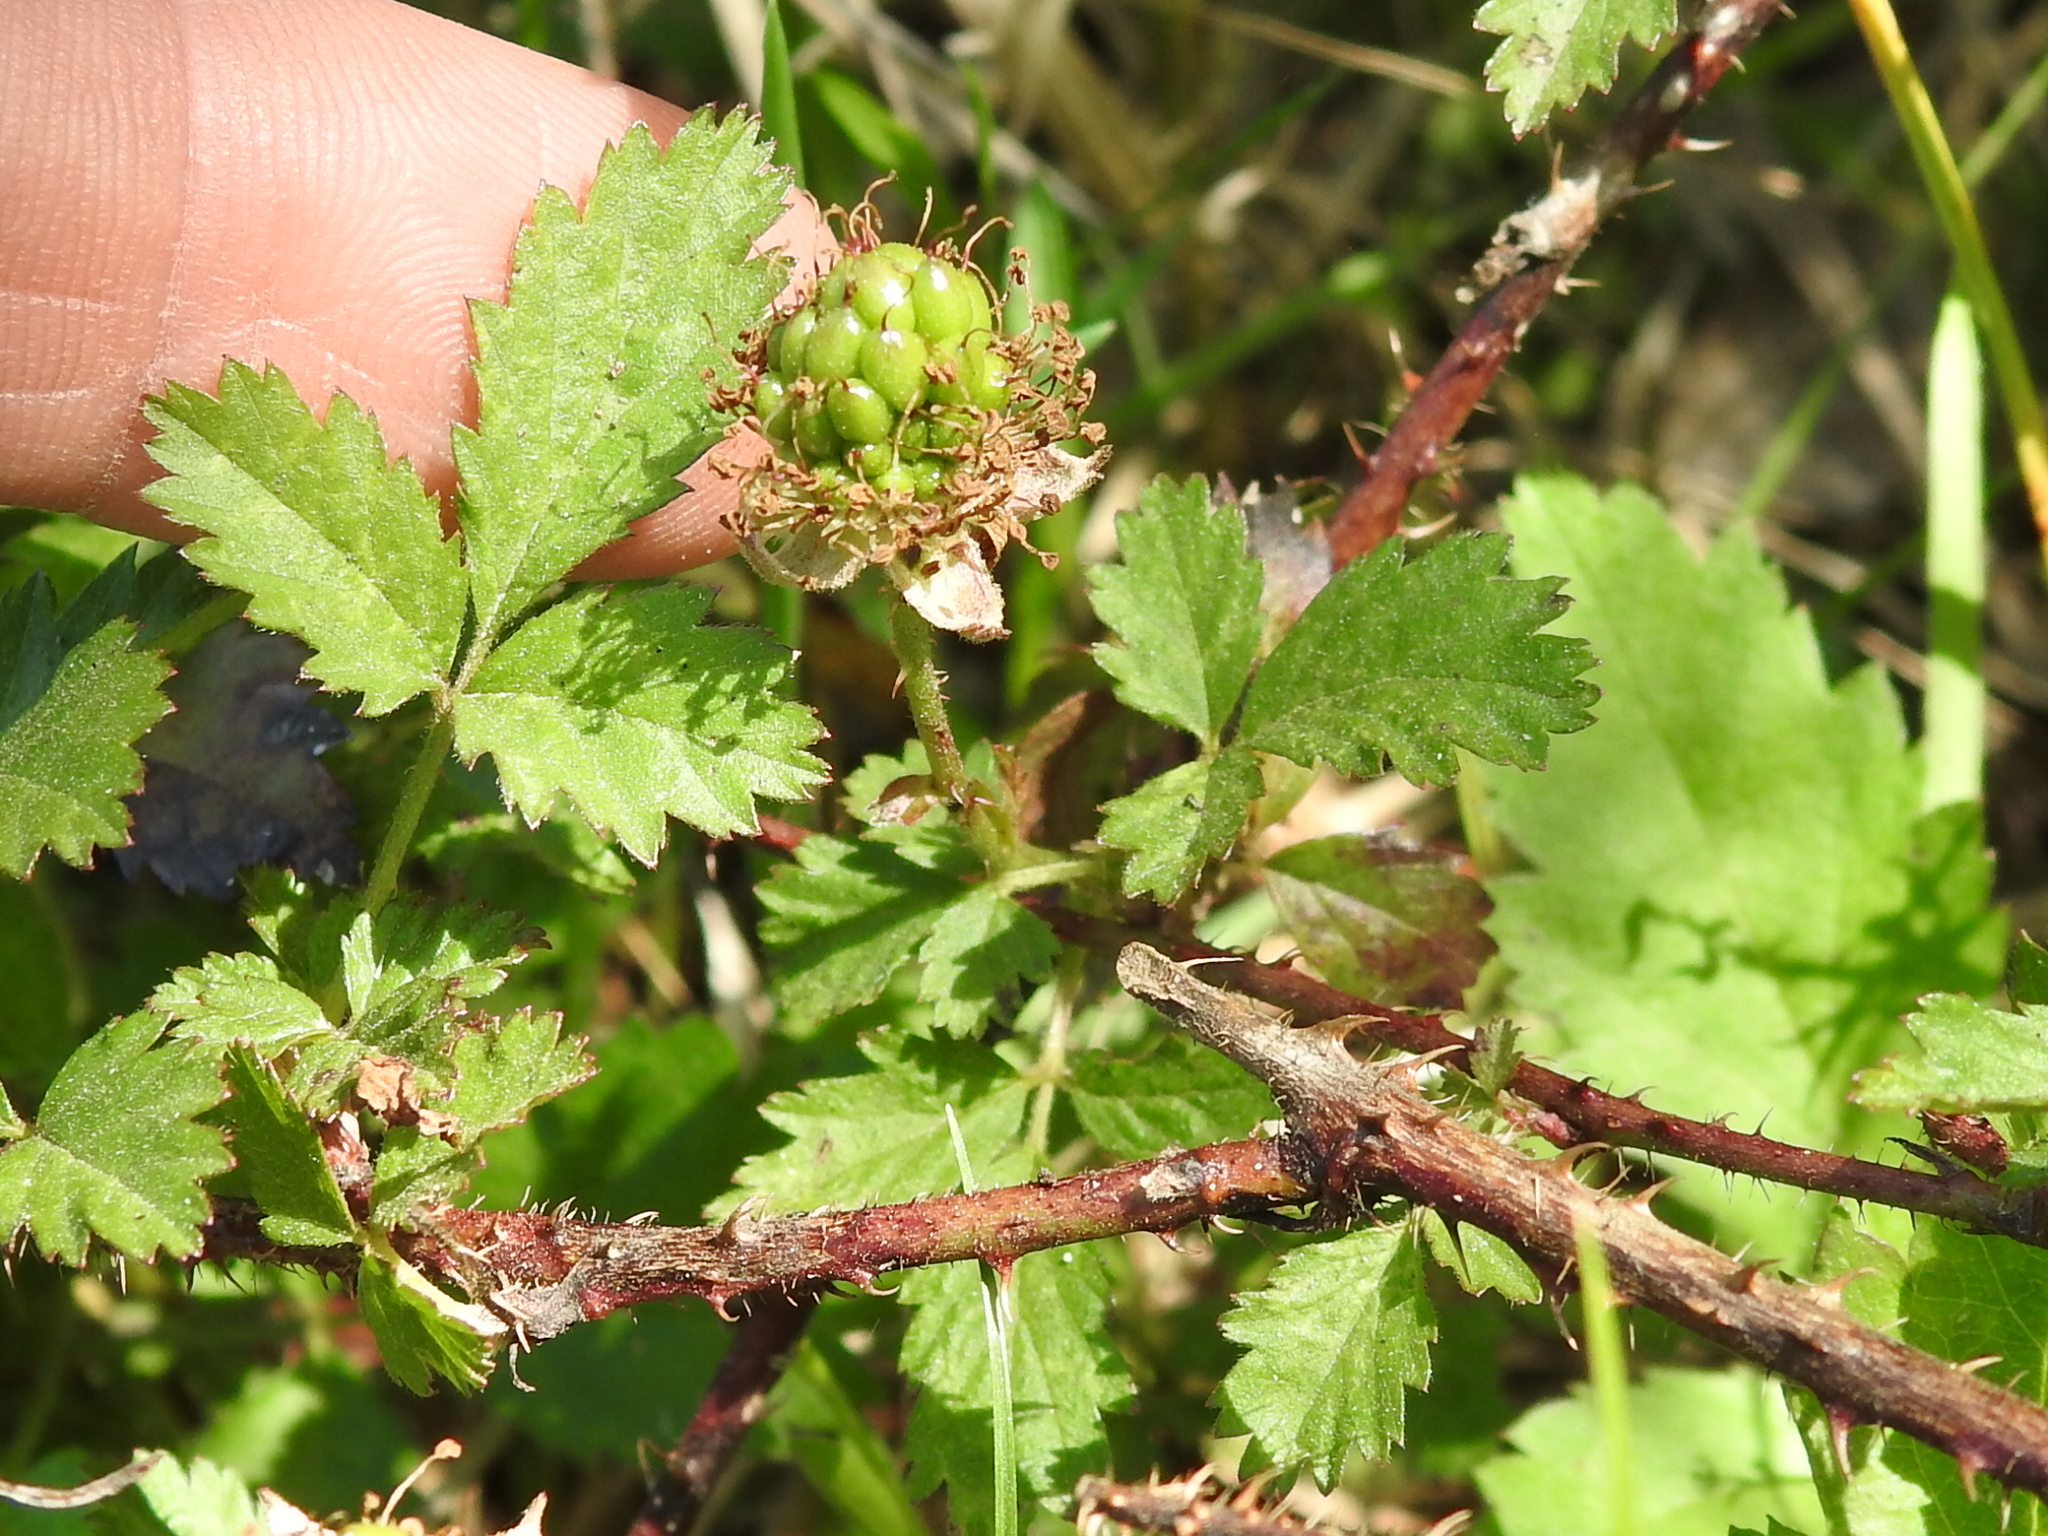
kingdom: Plantae
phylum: Tracheophyta
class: Magnoliopsida
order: Rosales
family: Rosaceae
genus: Rubus
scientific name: Rubus trivialis
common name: Southern dewberry
